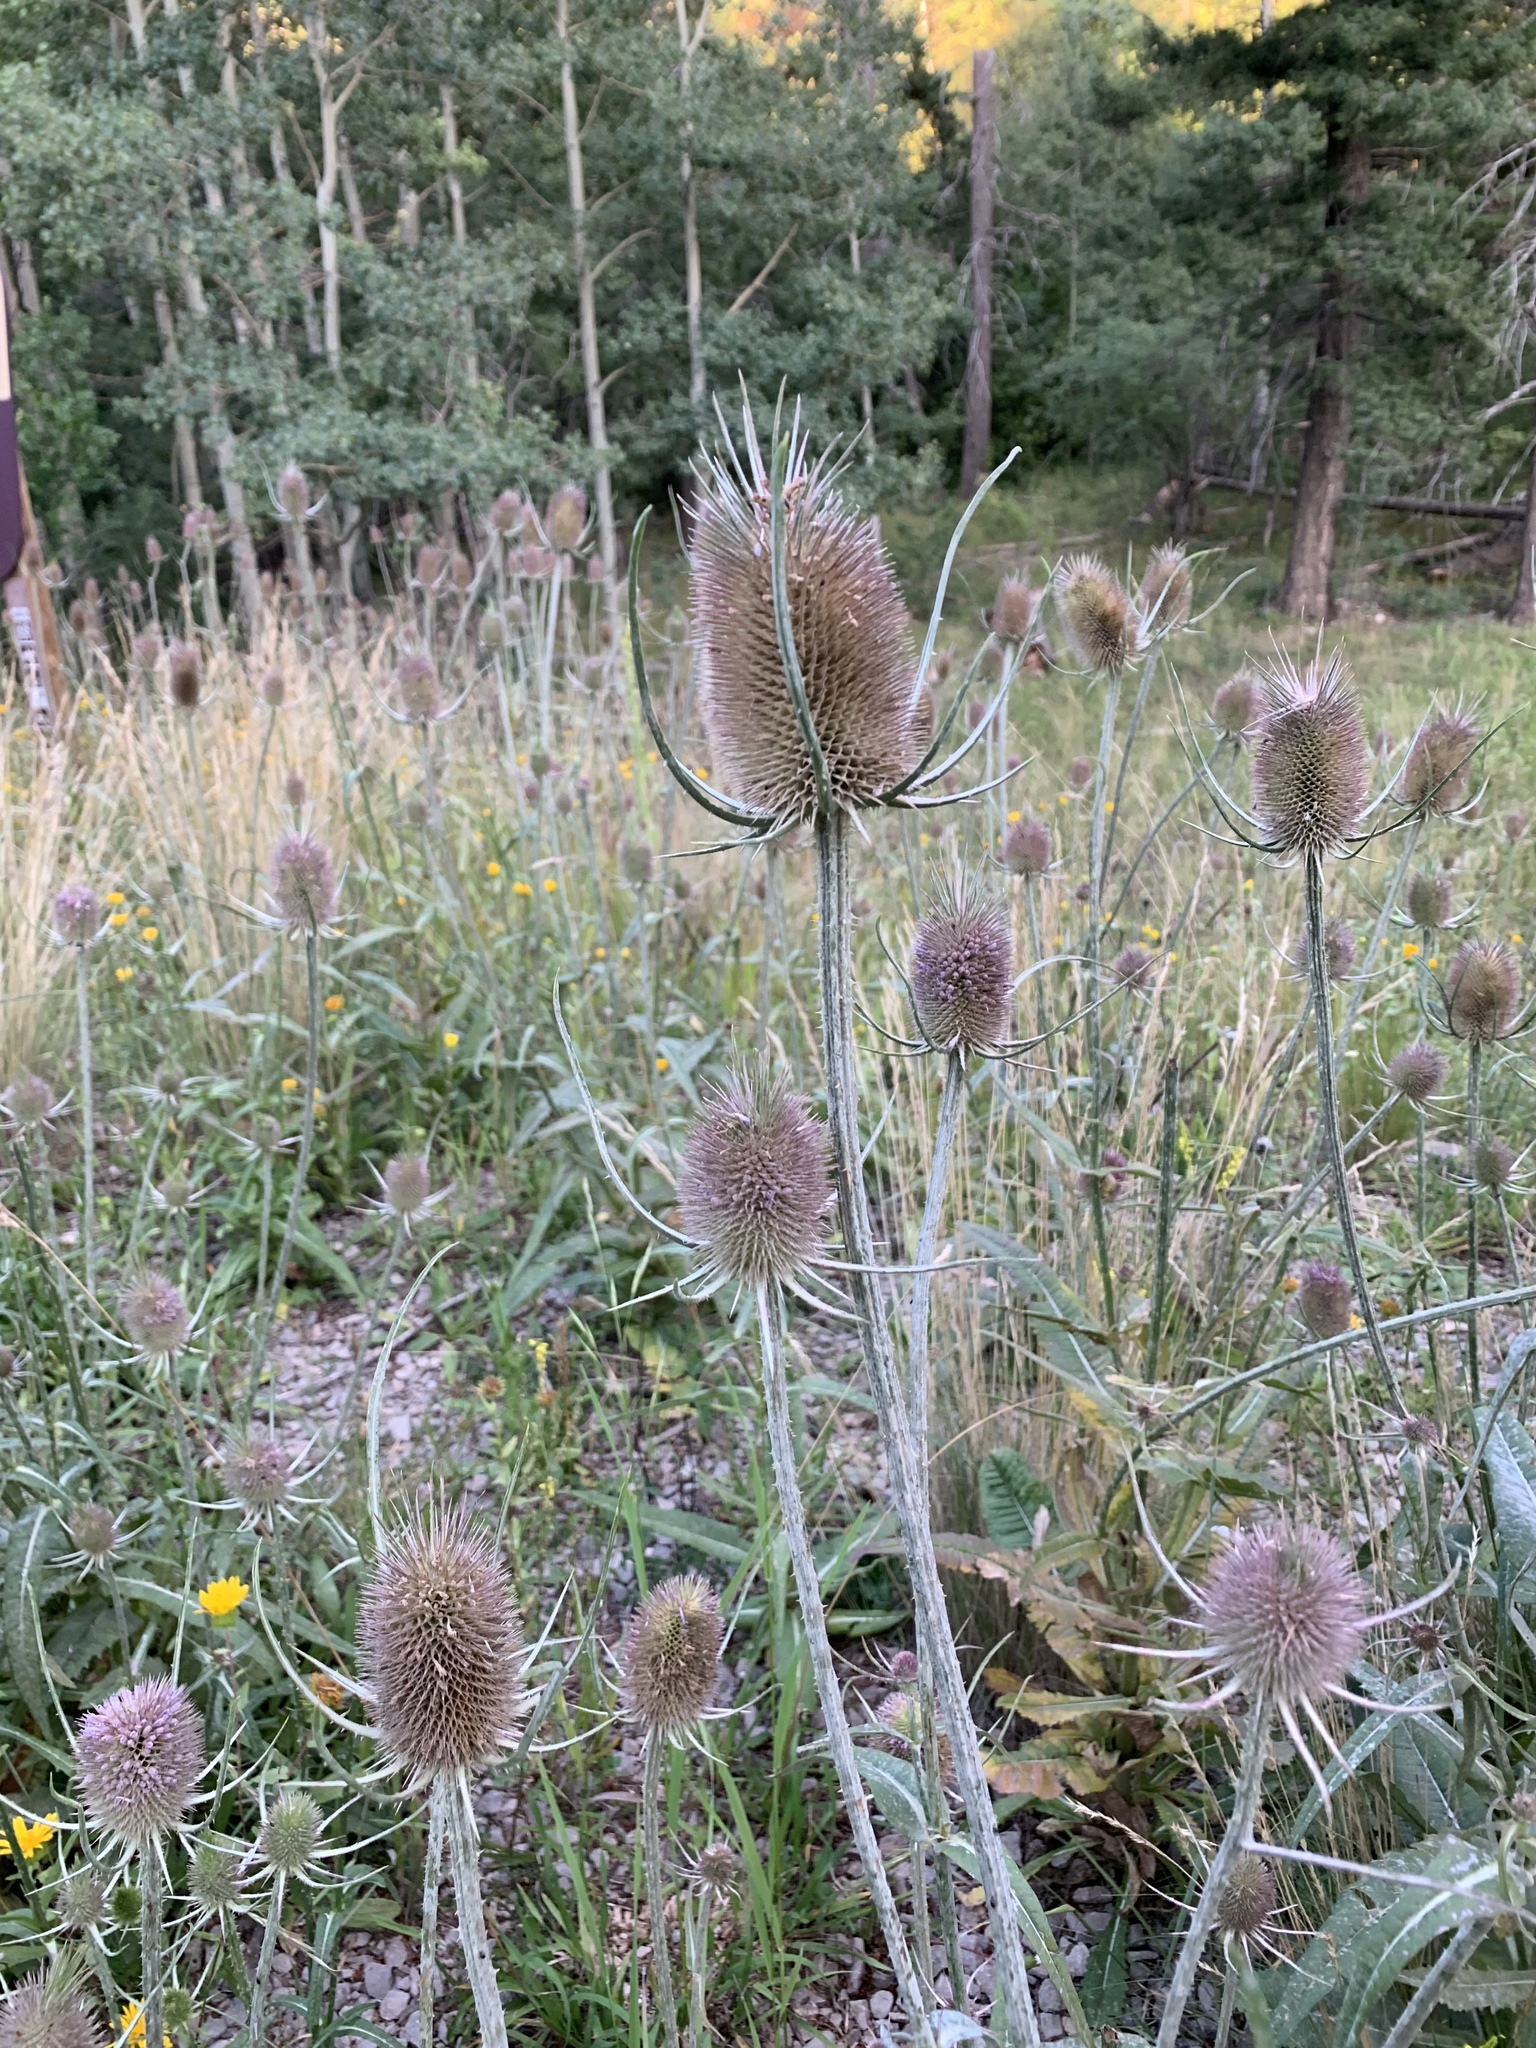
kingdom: Plantae
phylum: Tracheophyta
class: Magnoliopsida
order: Dipsacales
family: Caprifoliaceae
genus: Dipsacus
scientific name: Dipsacus fullonum
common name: Teasel
